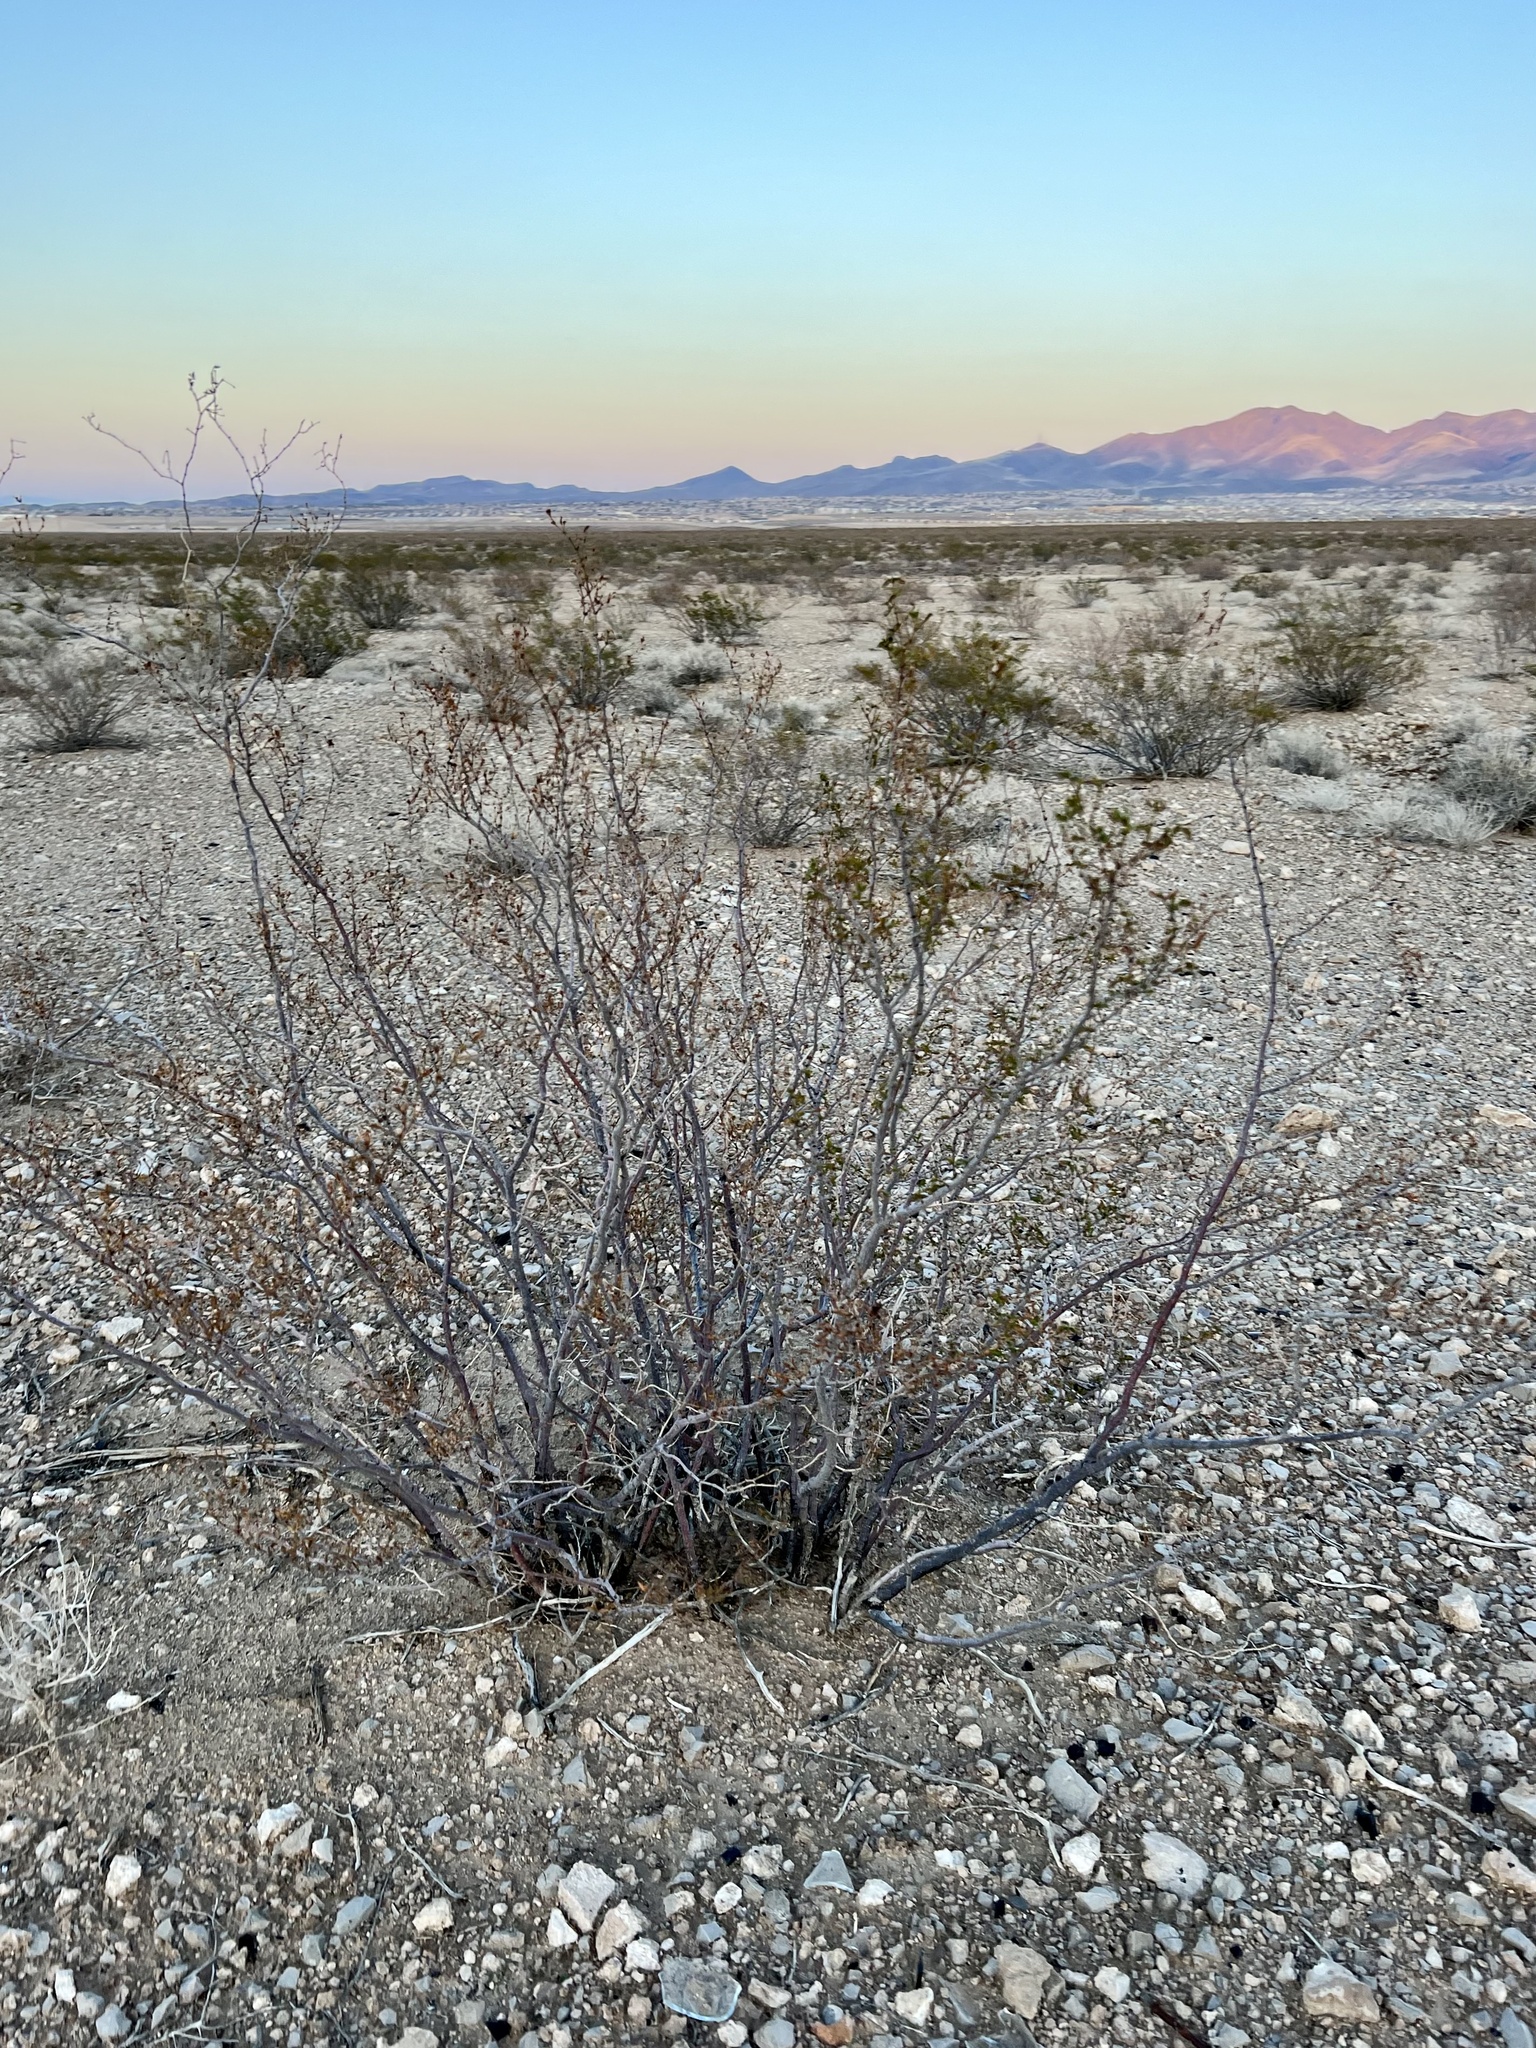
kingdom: Plantae
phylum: Tracheophyta
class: Magnoliopsida
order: Zygophyllales
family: Zygophyllaceae
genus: Larrea
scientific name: Larrea tridentata
